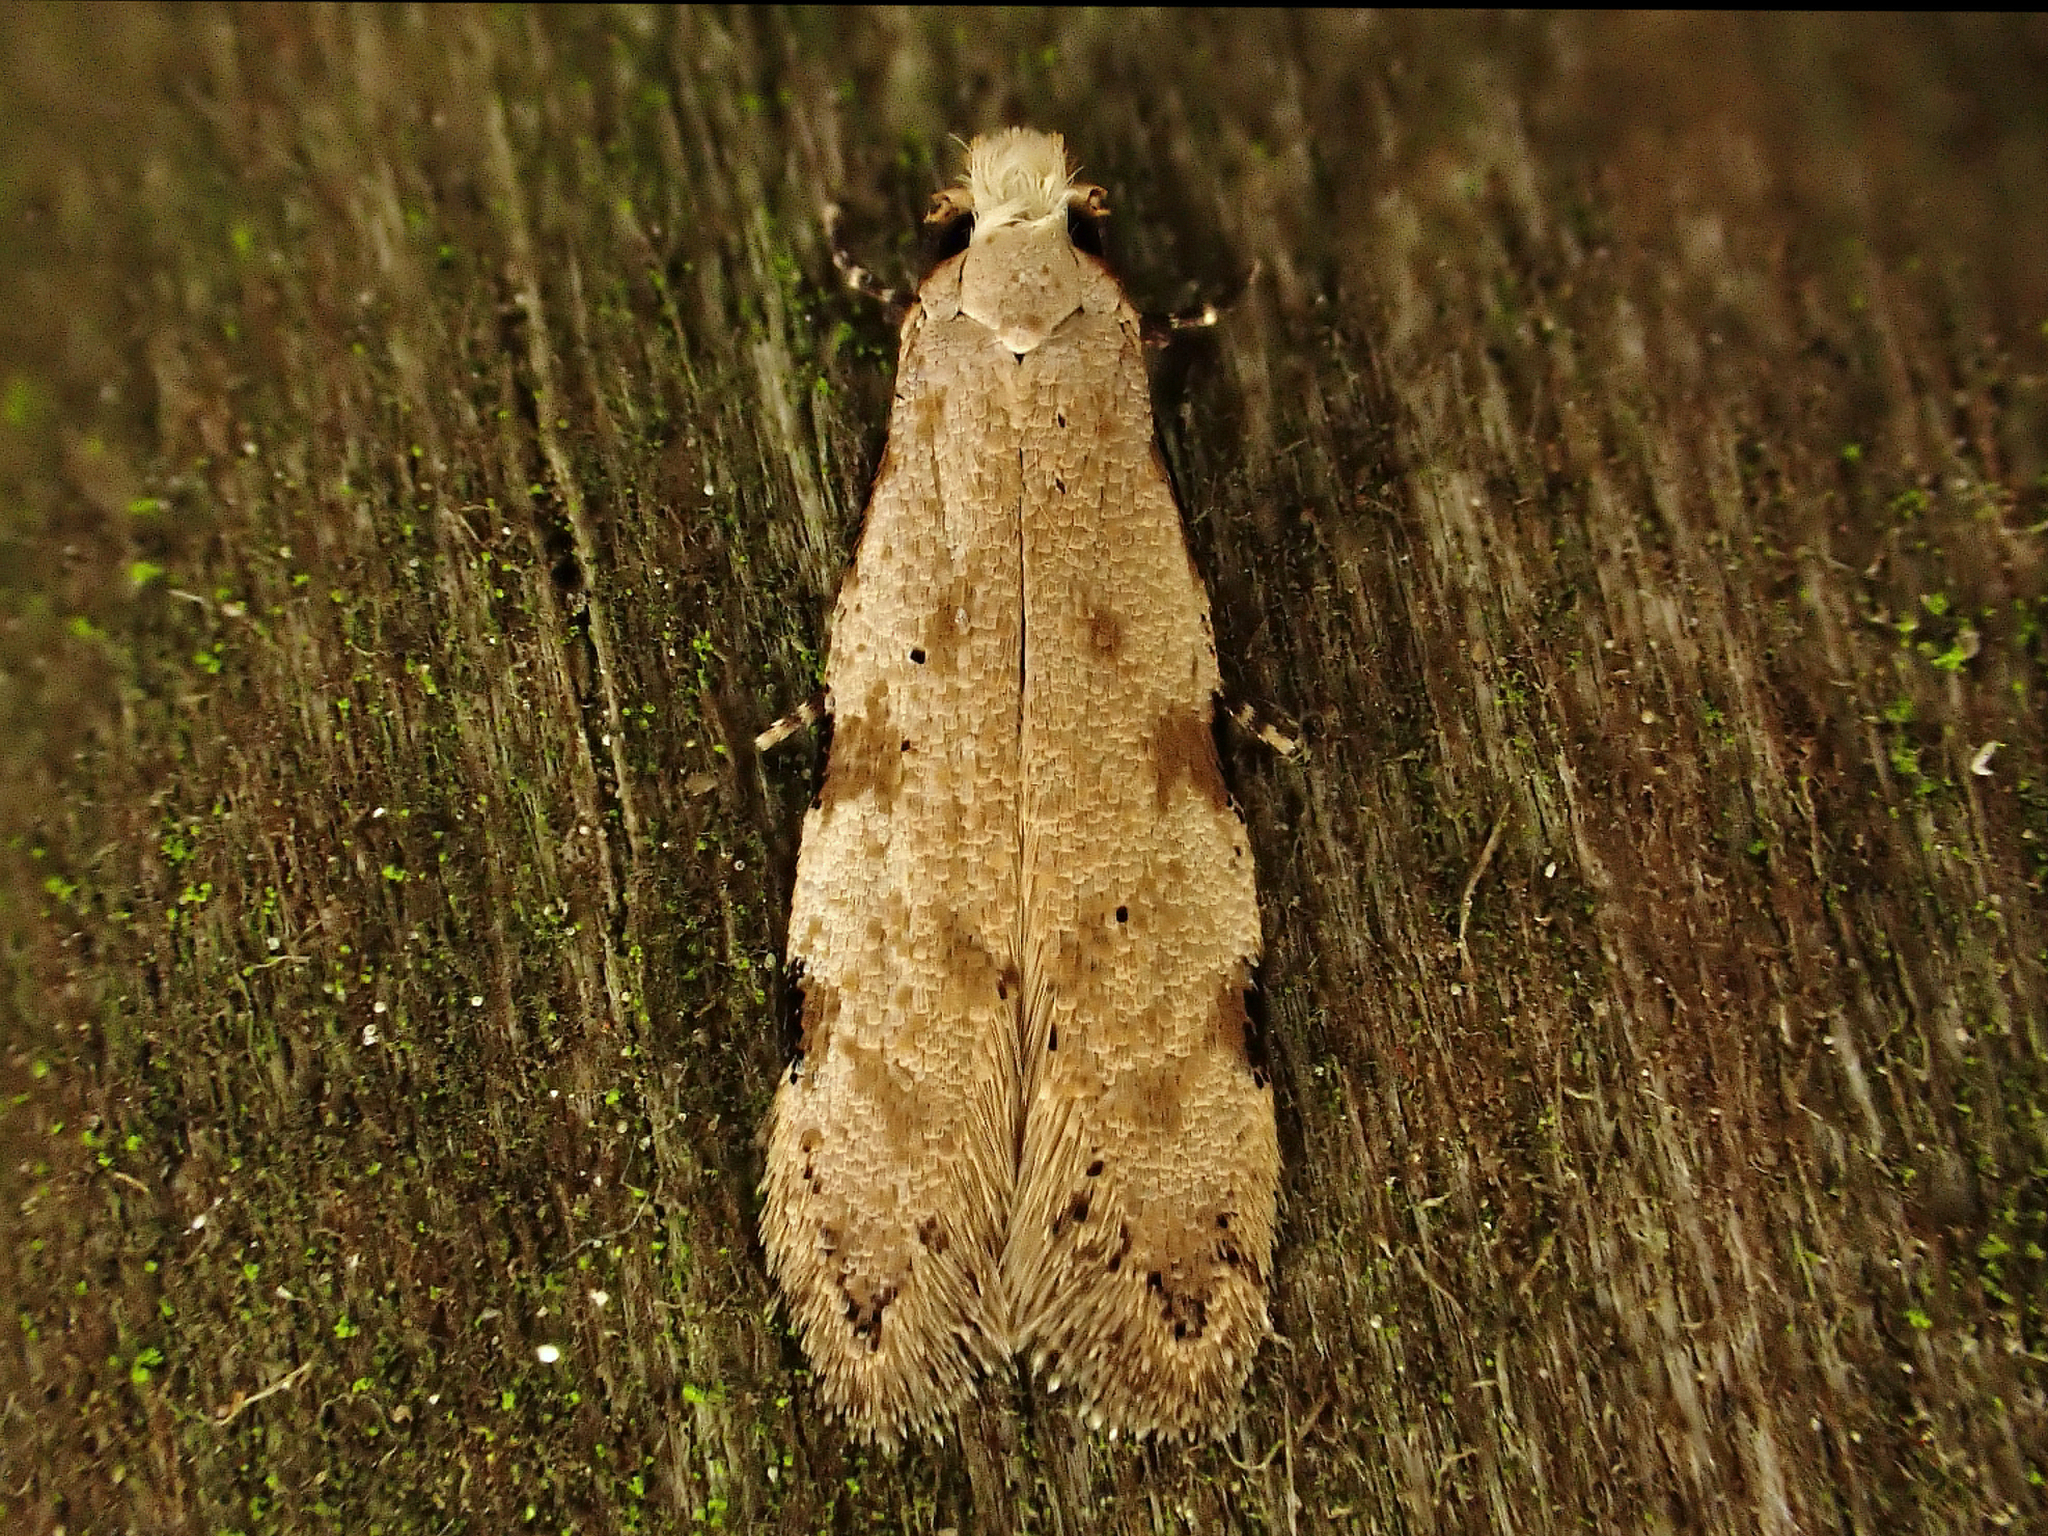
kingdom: Animalia
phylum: Arthropoda
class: Insecta
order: Lepidoptera
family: Tineidae
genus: Endophthora
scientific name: Endophthora omogramma
